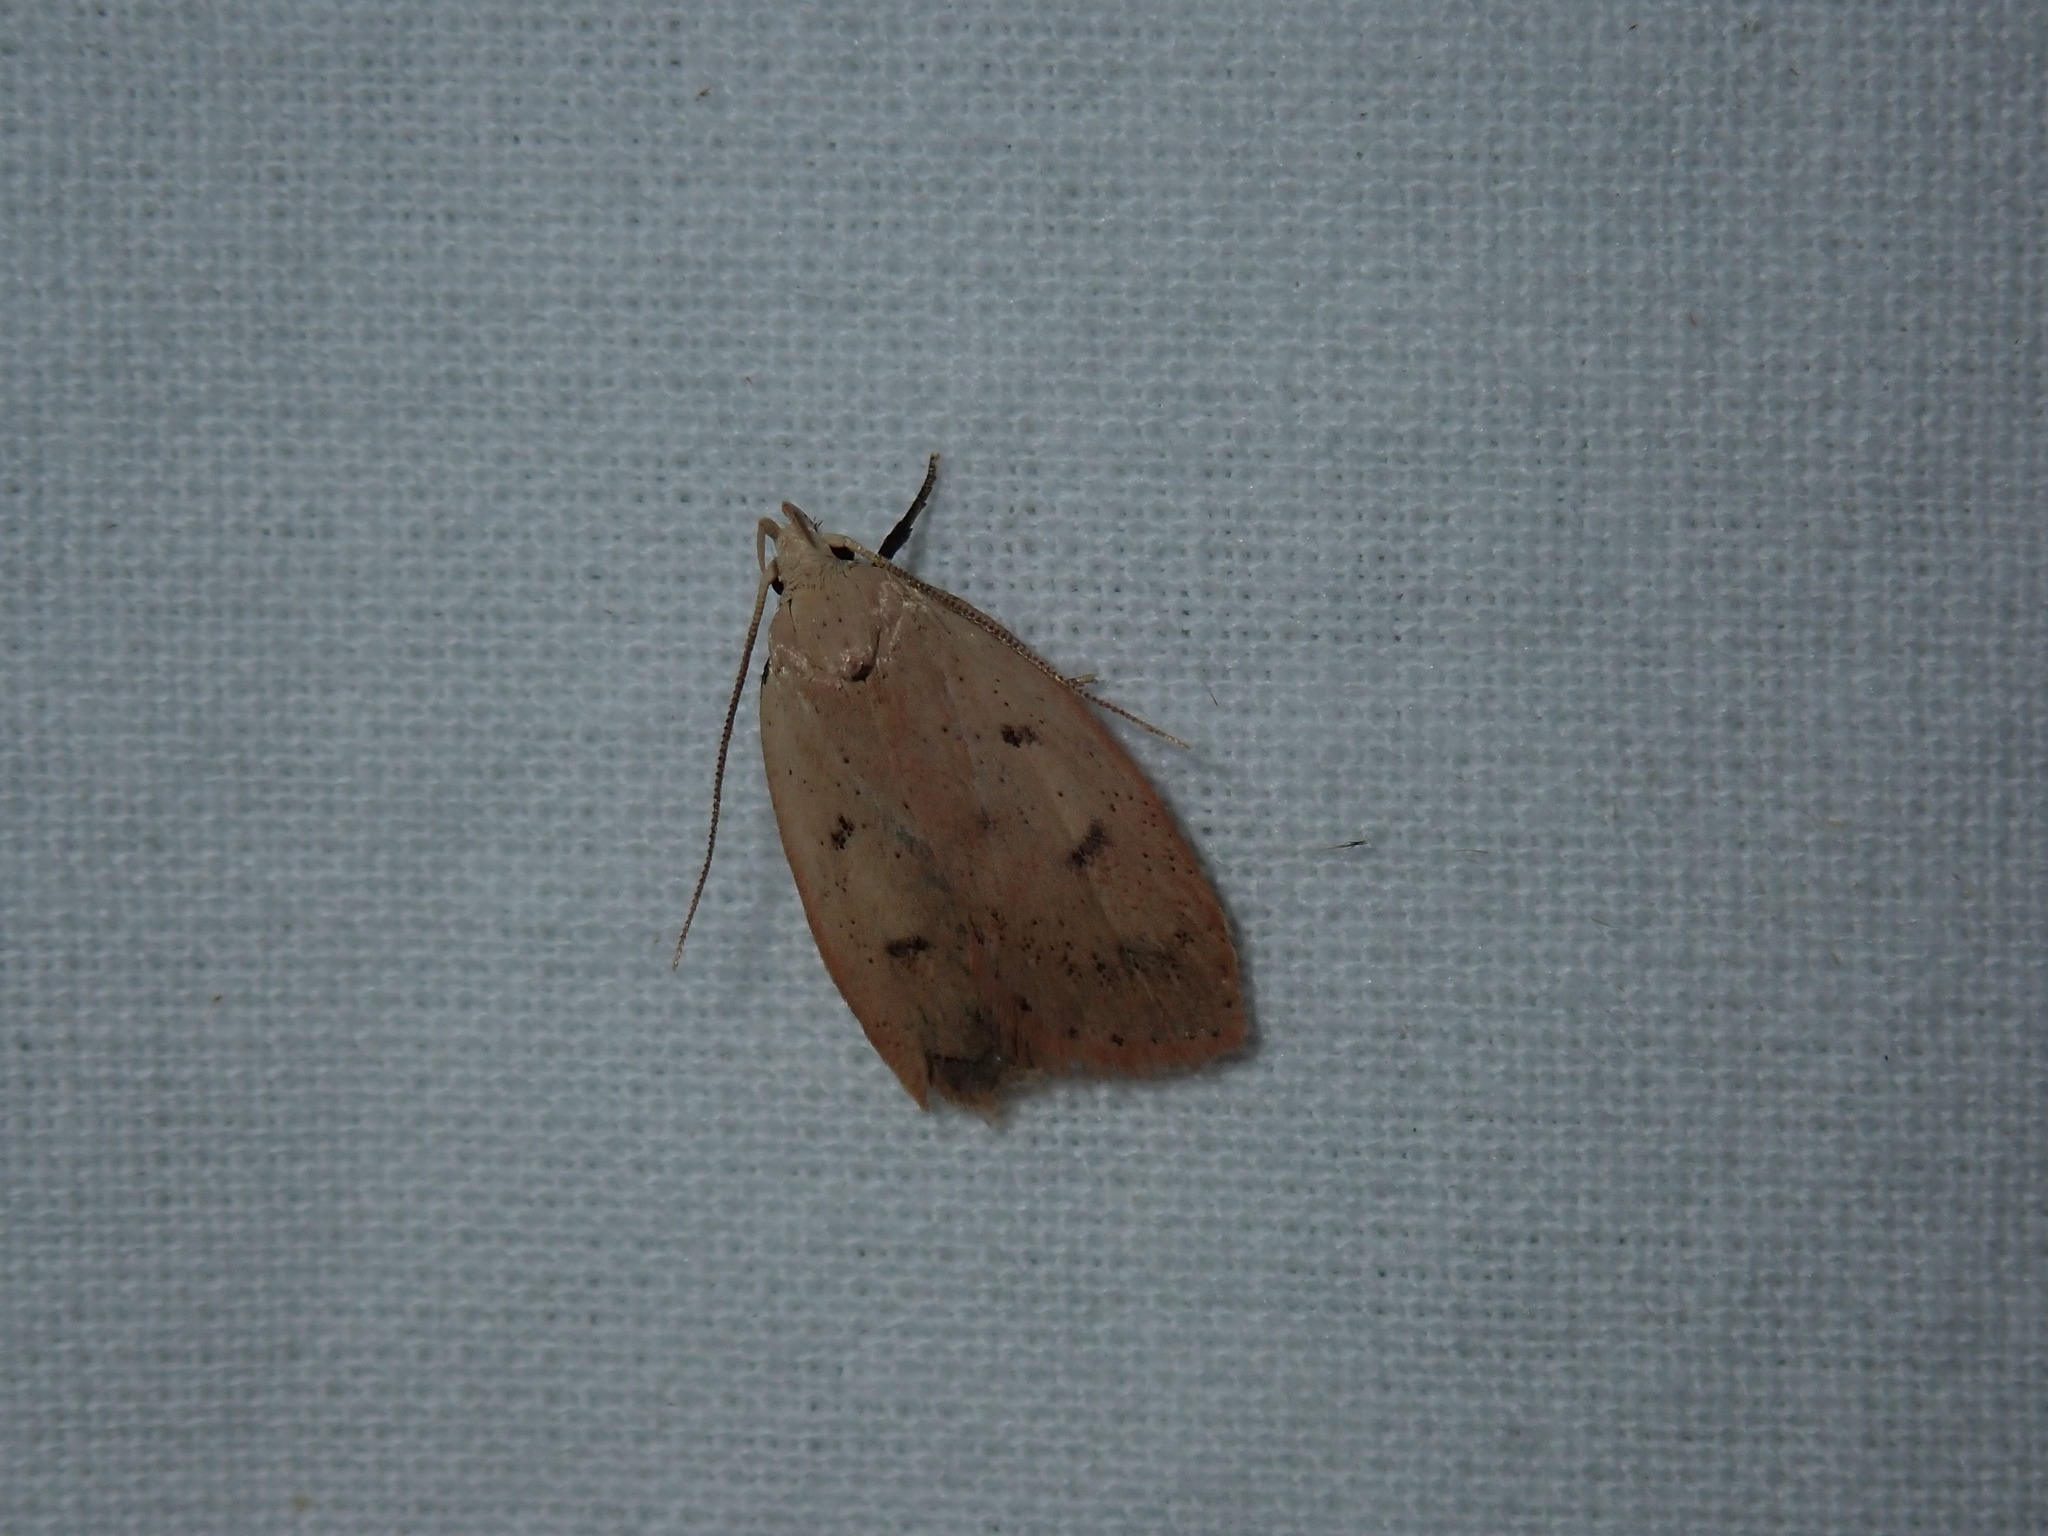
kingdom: Animalia
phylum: Arthropoda
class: Insecta
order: Lepidoptera
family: Peleopodidae
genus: Machimia
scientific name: Machimia tentoriferella
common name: Gold-striped leaftier moth
